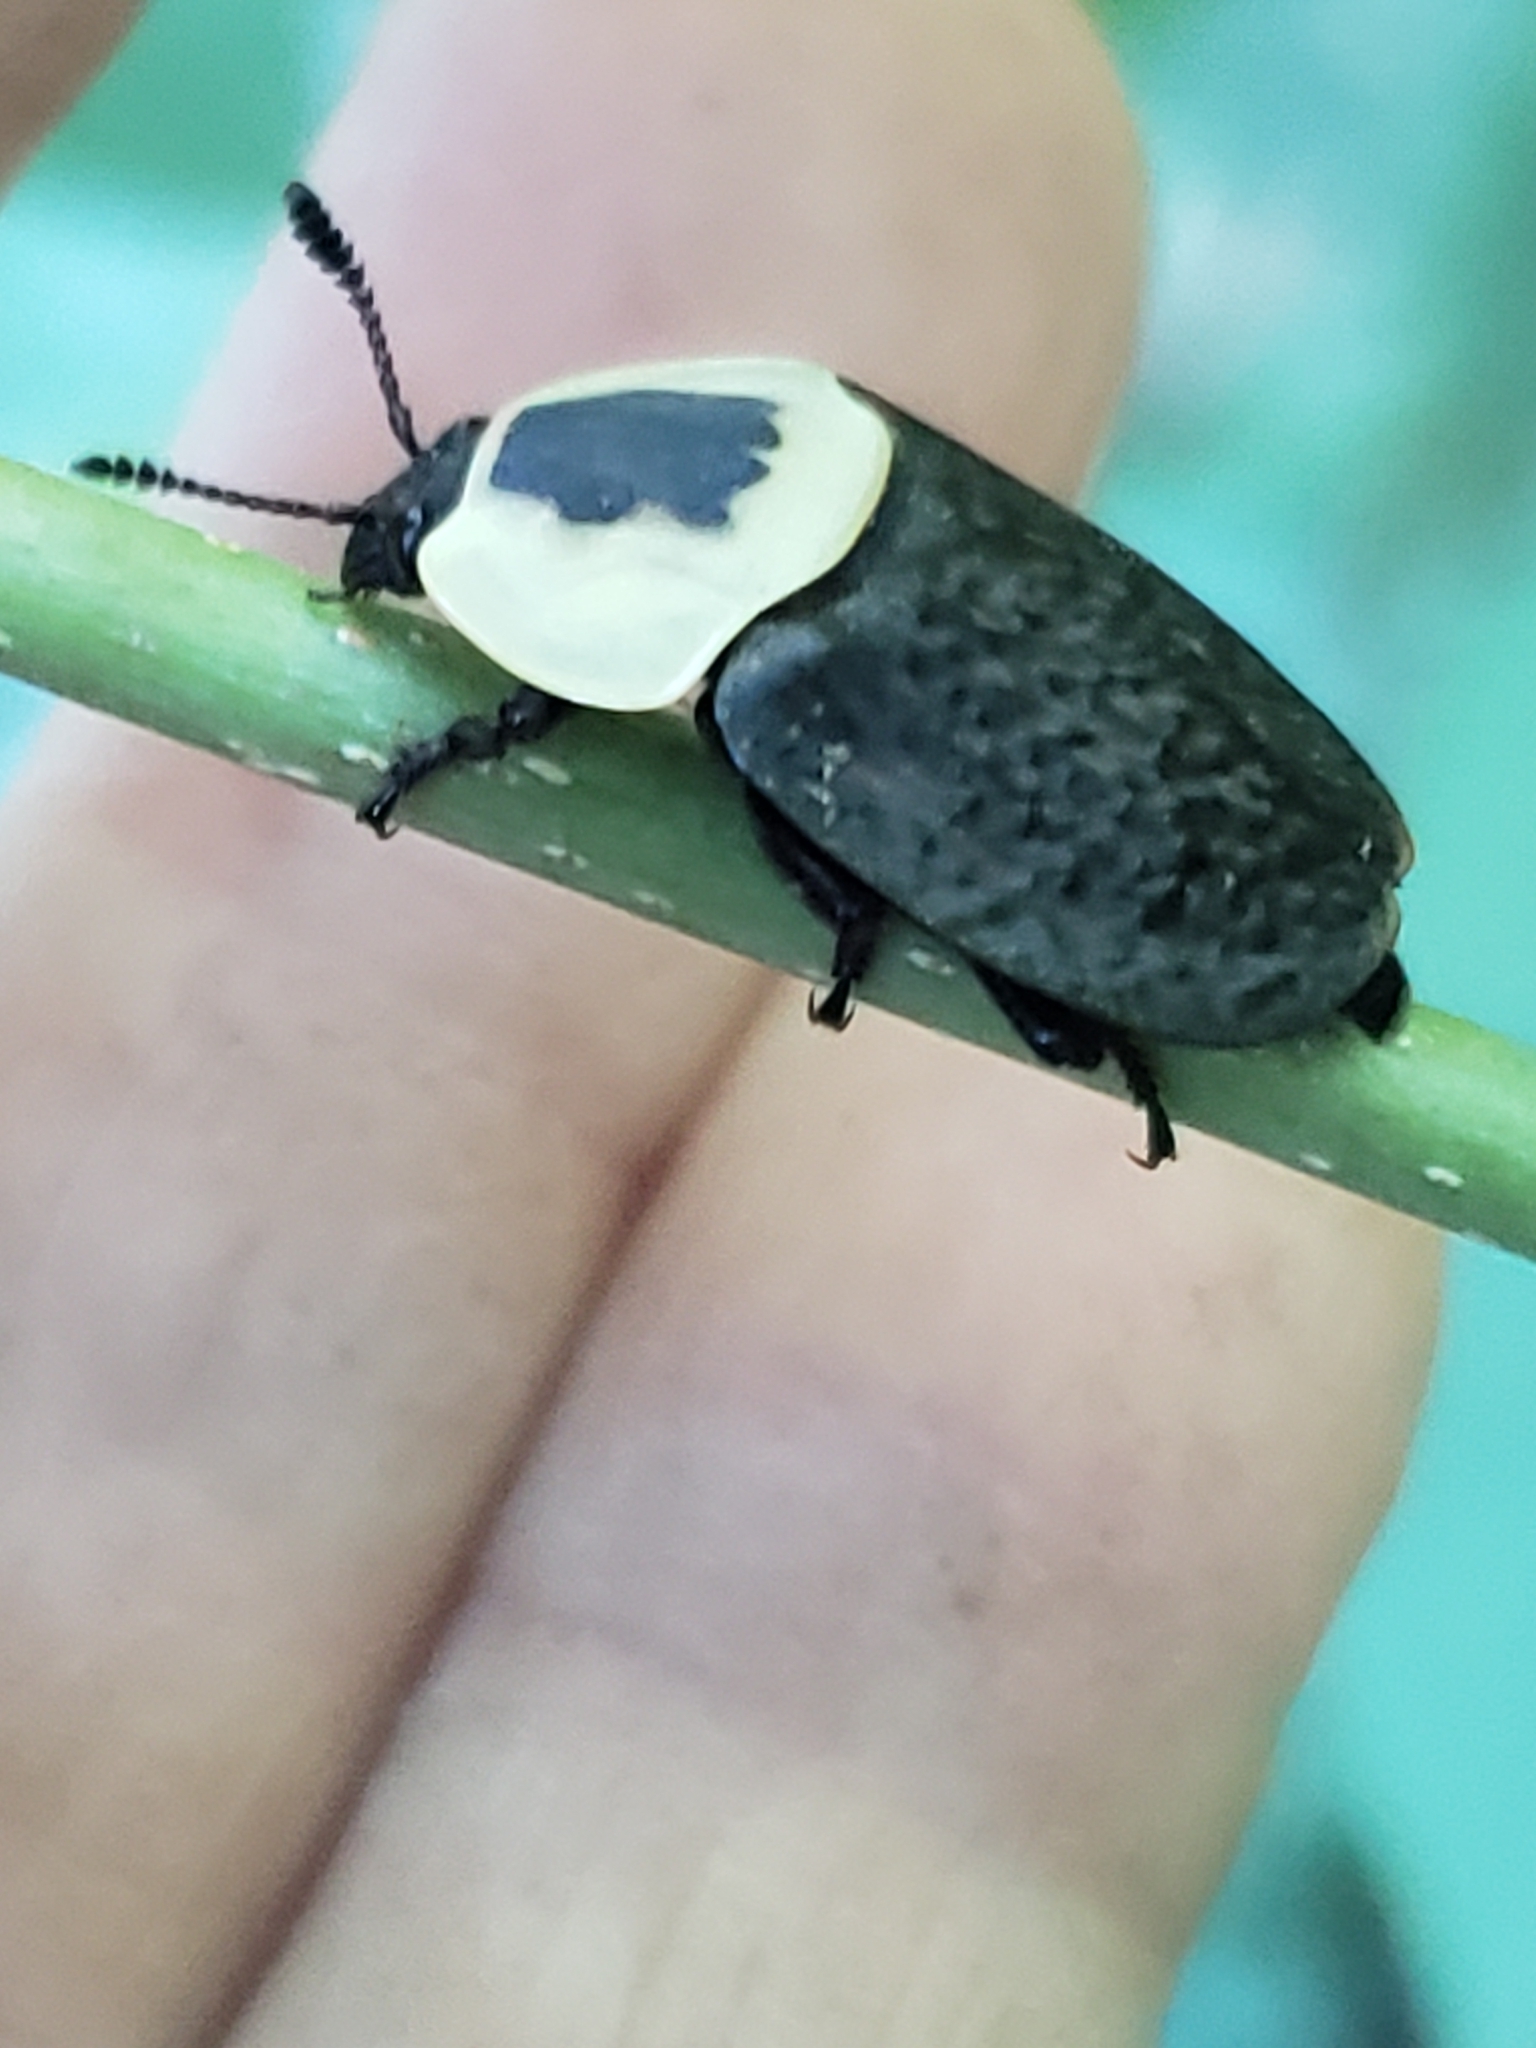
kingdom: Animalia
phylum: Arthropoda
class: Insecta
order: Coleoptera
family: Staphylinidae
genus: Necrophila
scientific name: Necrophila americana
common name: American carrion beetle
